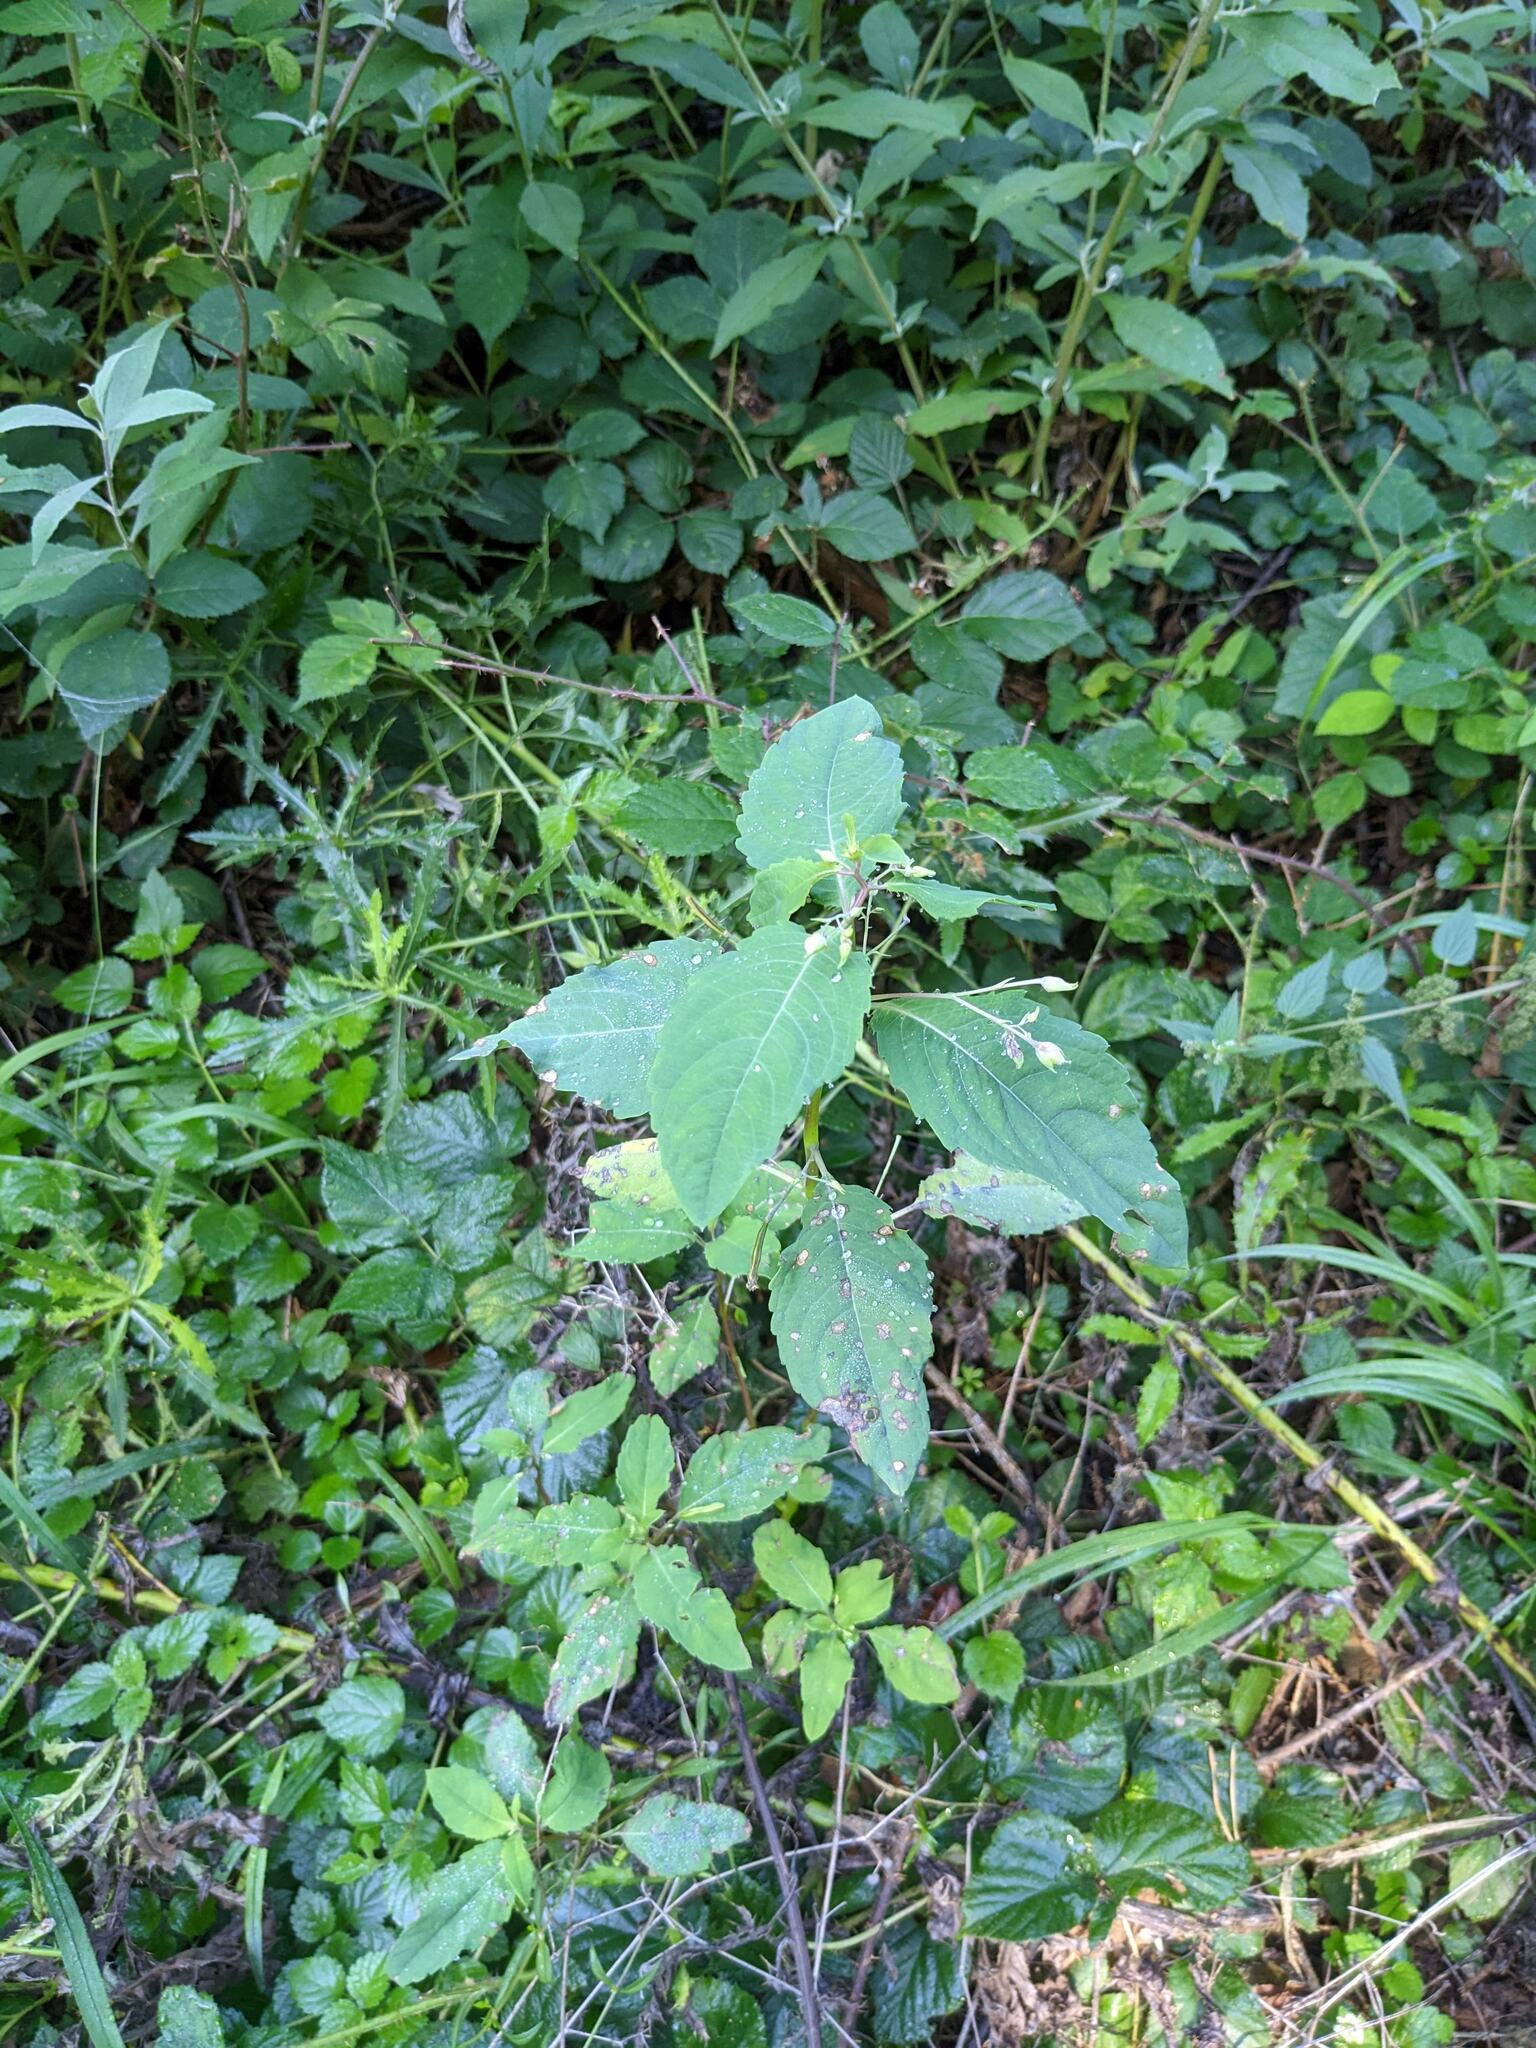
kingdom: Plantae
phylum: Tracheophyta
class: Magnoliopsida
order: Ericales
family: Balsaminaceae
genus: Impatiens
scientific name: Impatiens noli-tangere
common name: Touch-me-not balsam
